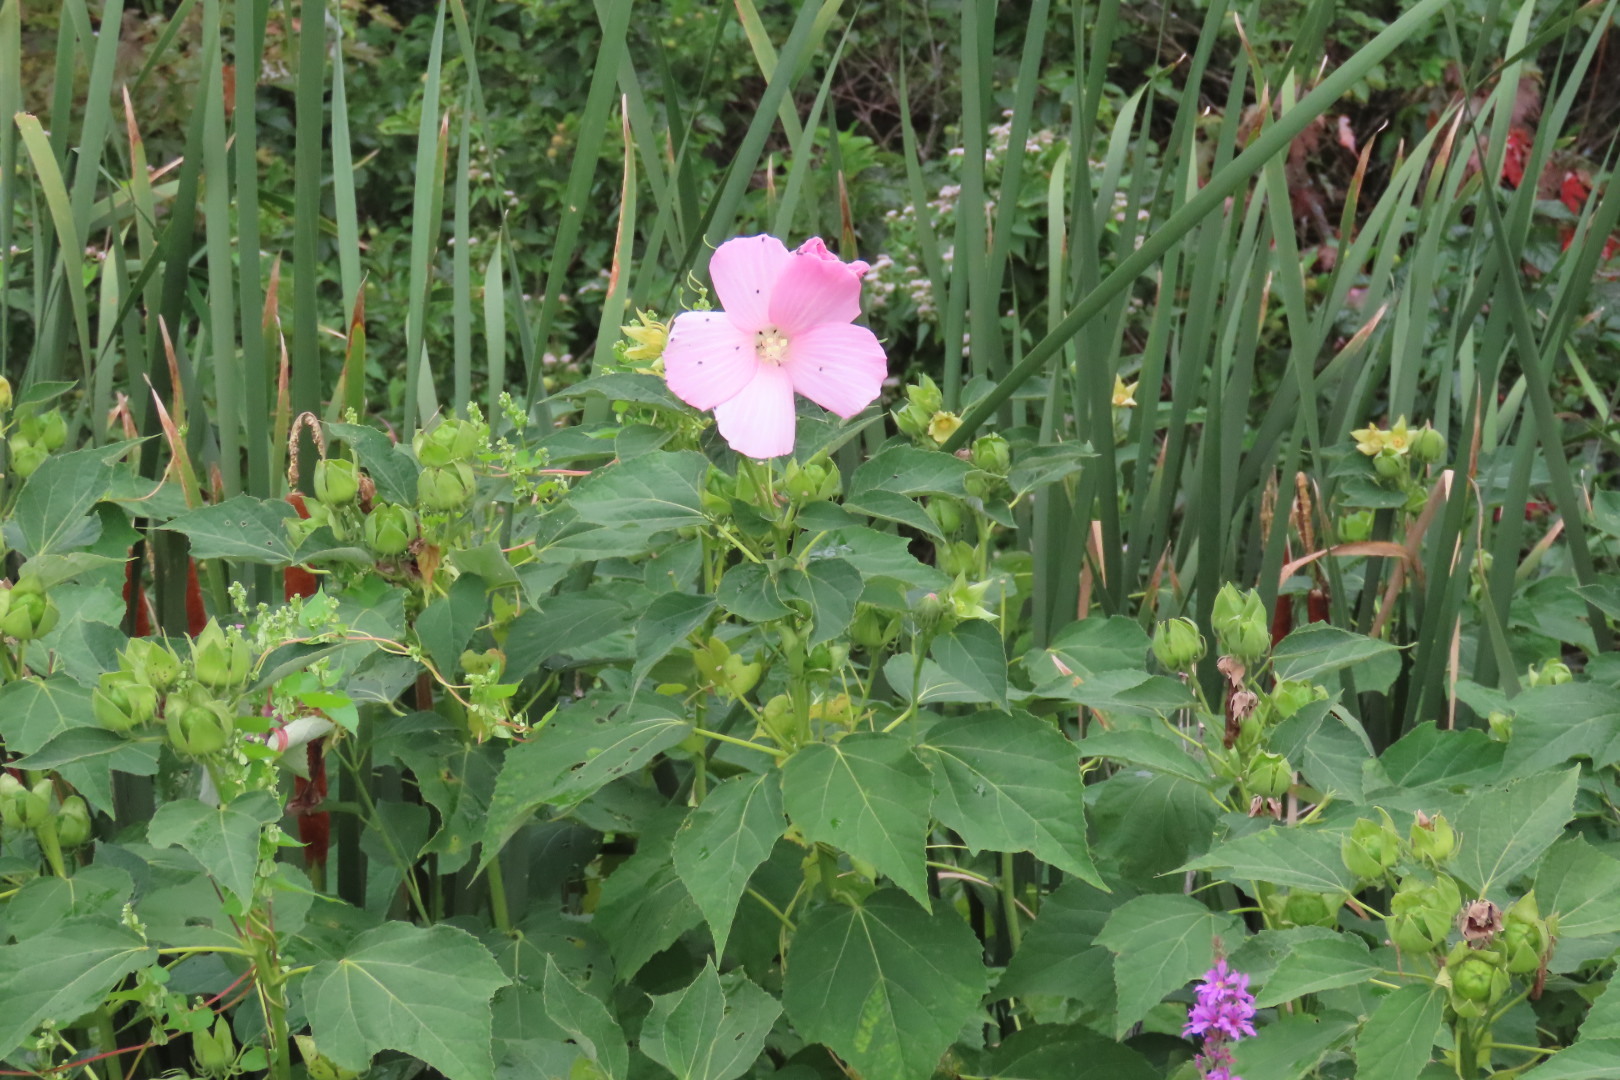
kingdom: Plantae
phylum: Tracheophyta
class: Magnoliopsida
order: Malvales
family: Malvaceae
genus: Hibiscus
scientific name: Hibiscus moscheutos
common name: Common rose-mallow
